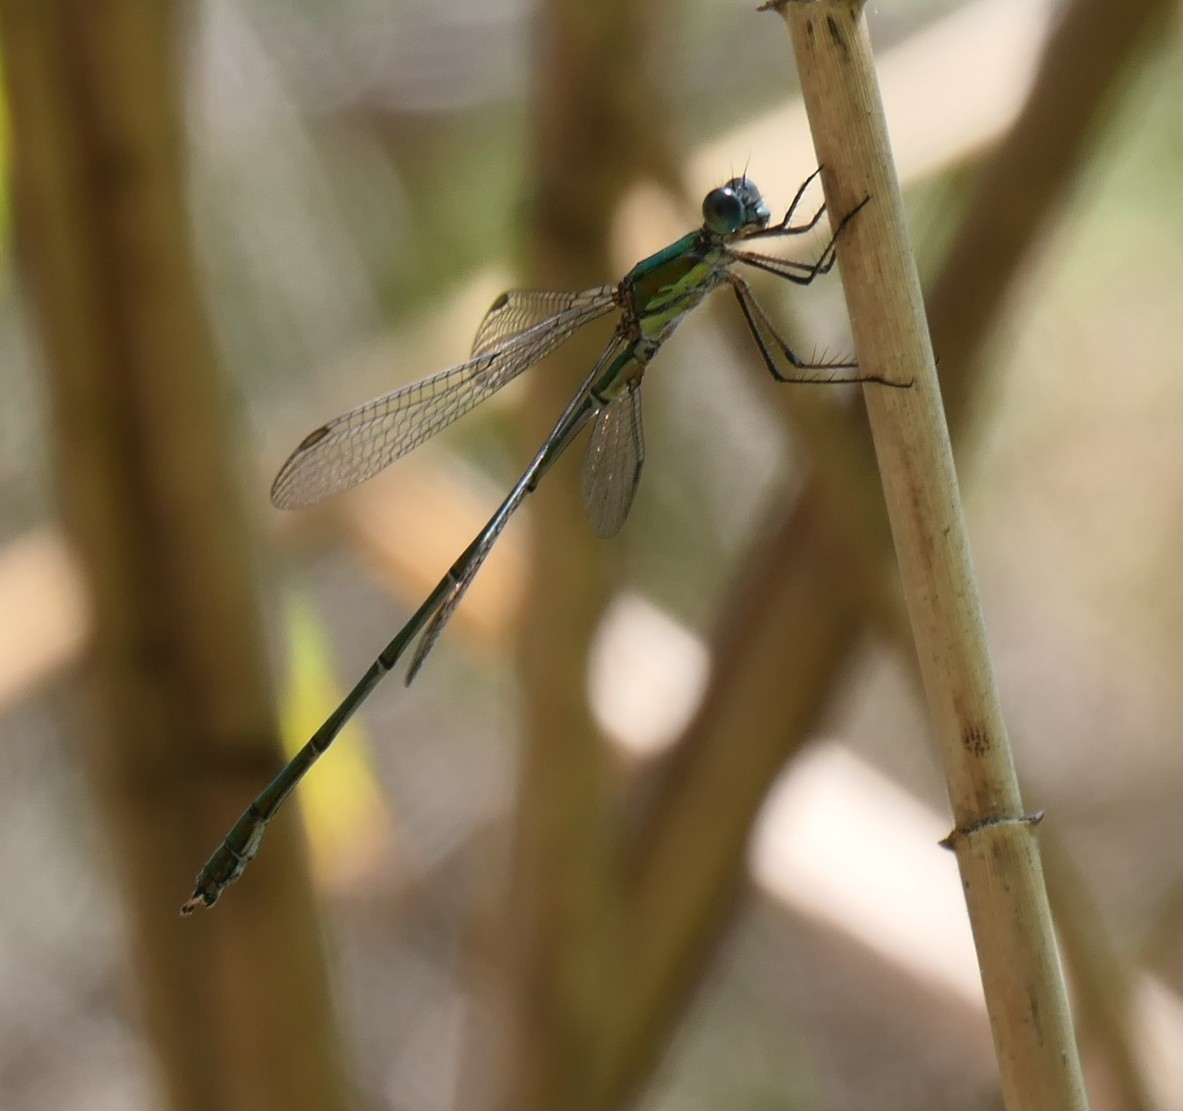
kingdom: Animalia
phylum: Arthropoda
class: Insecta
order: Odonata
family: Lestidae
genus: Chalcolestes
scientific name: Chalcolestes viridis
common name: Green emerald damselfly
